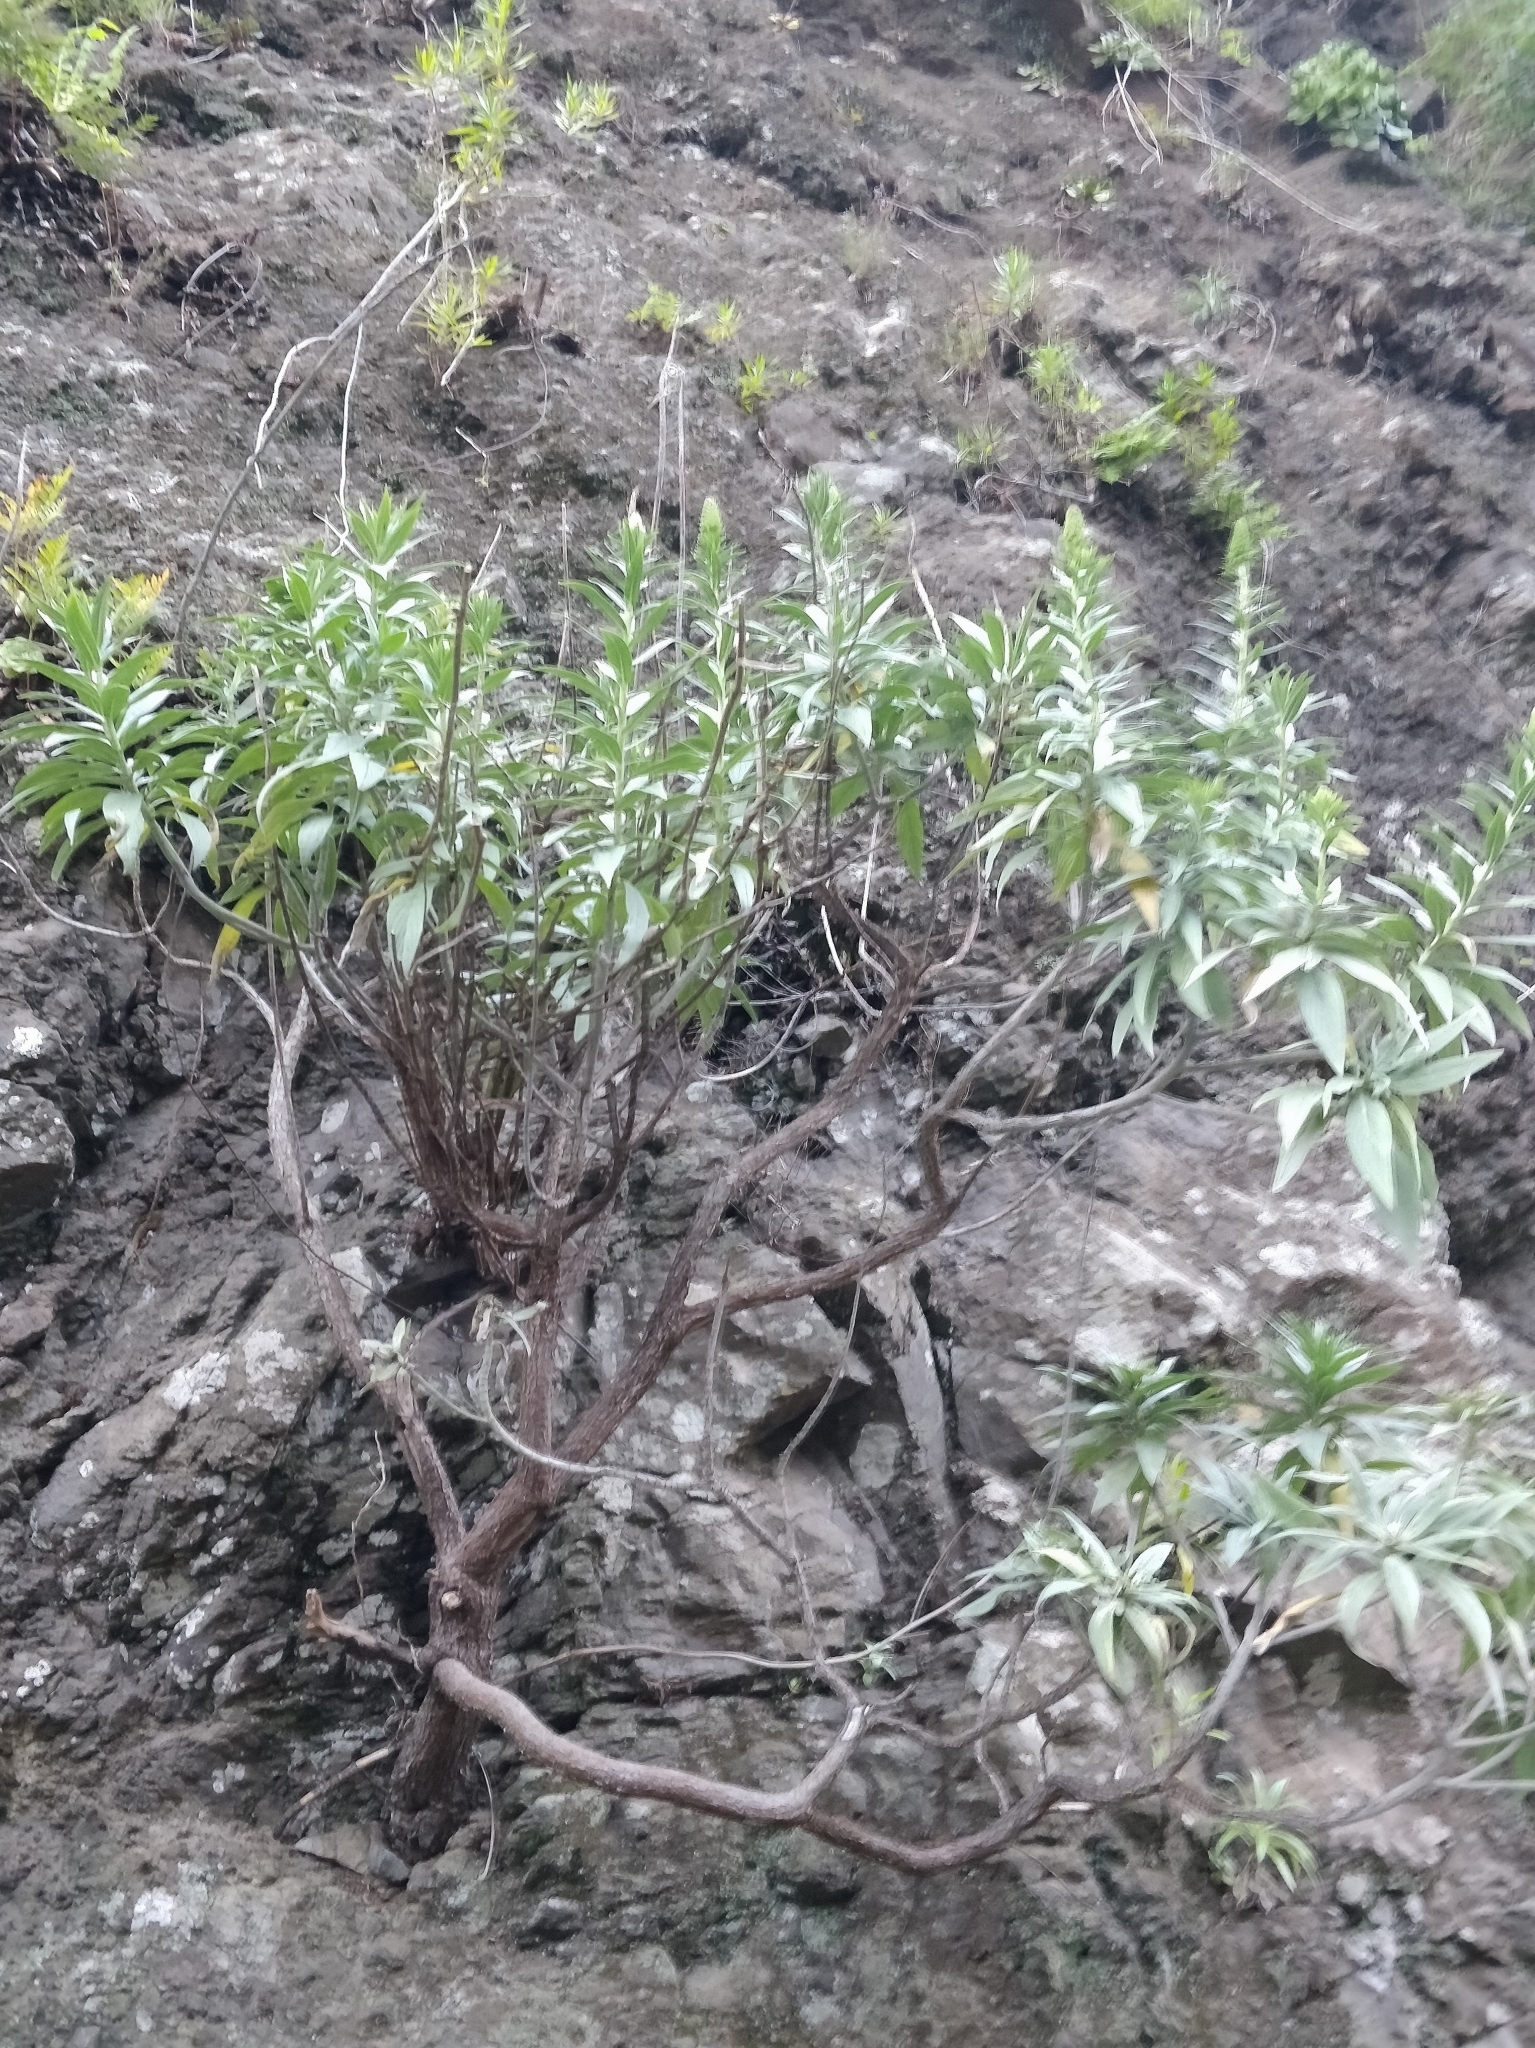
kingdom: Plantae
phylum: Tracheophyta
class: Magnoliopsida
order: Boraginales
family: Boraginaceae
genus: Echium
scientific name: Echium nervosum
